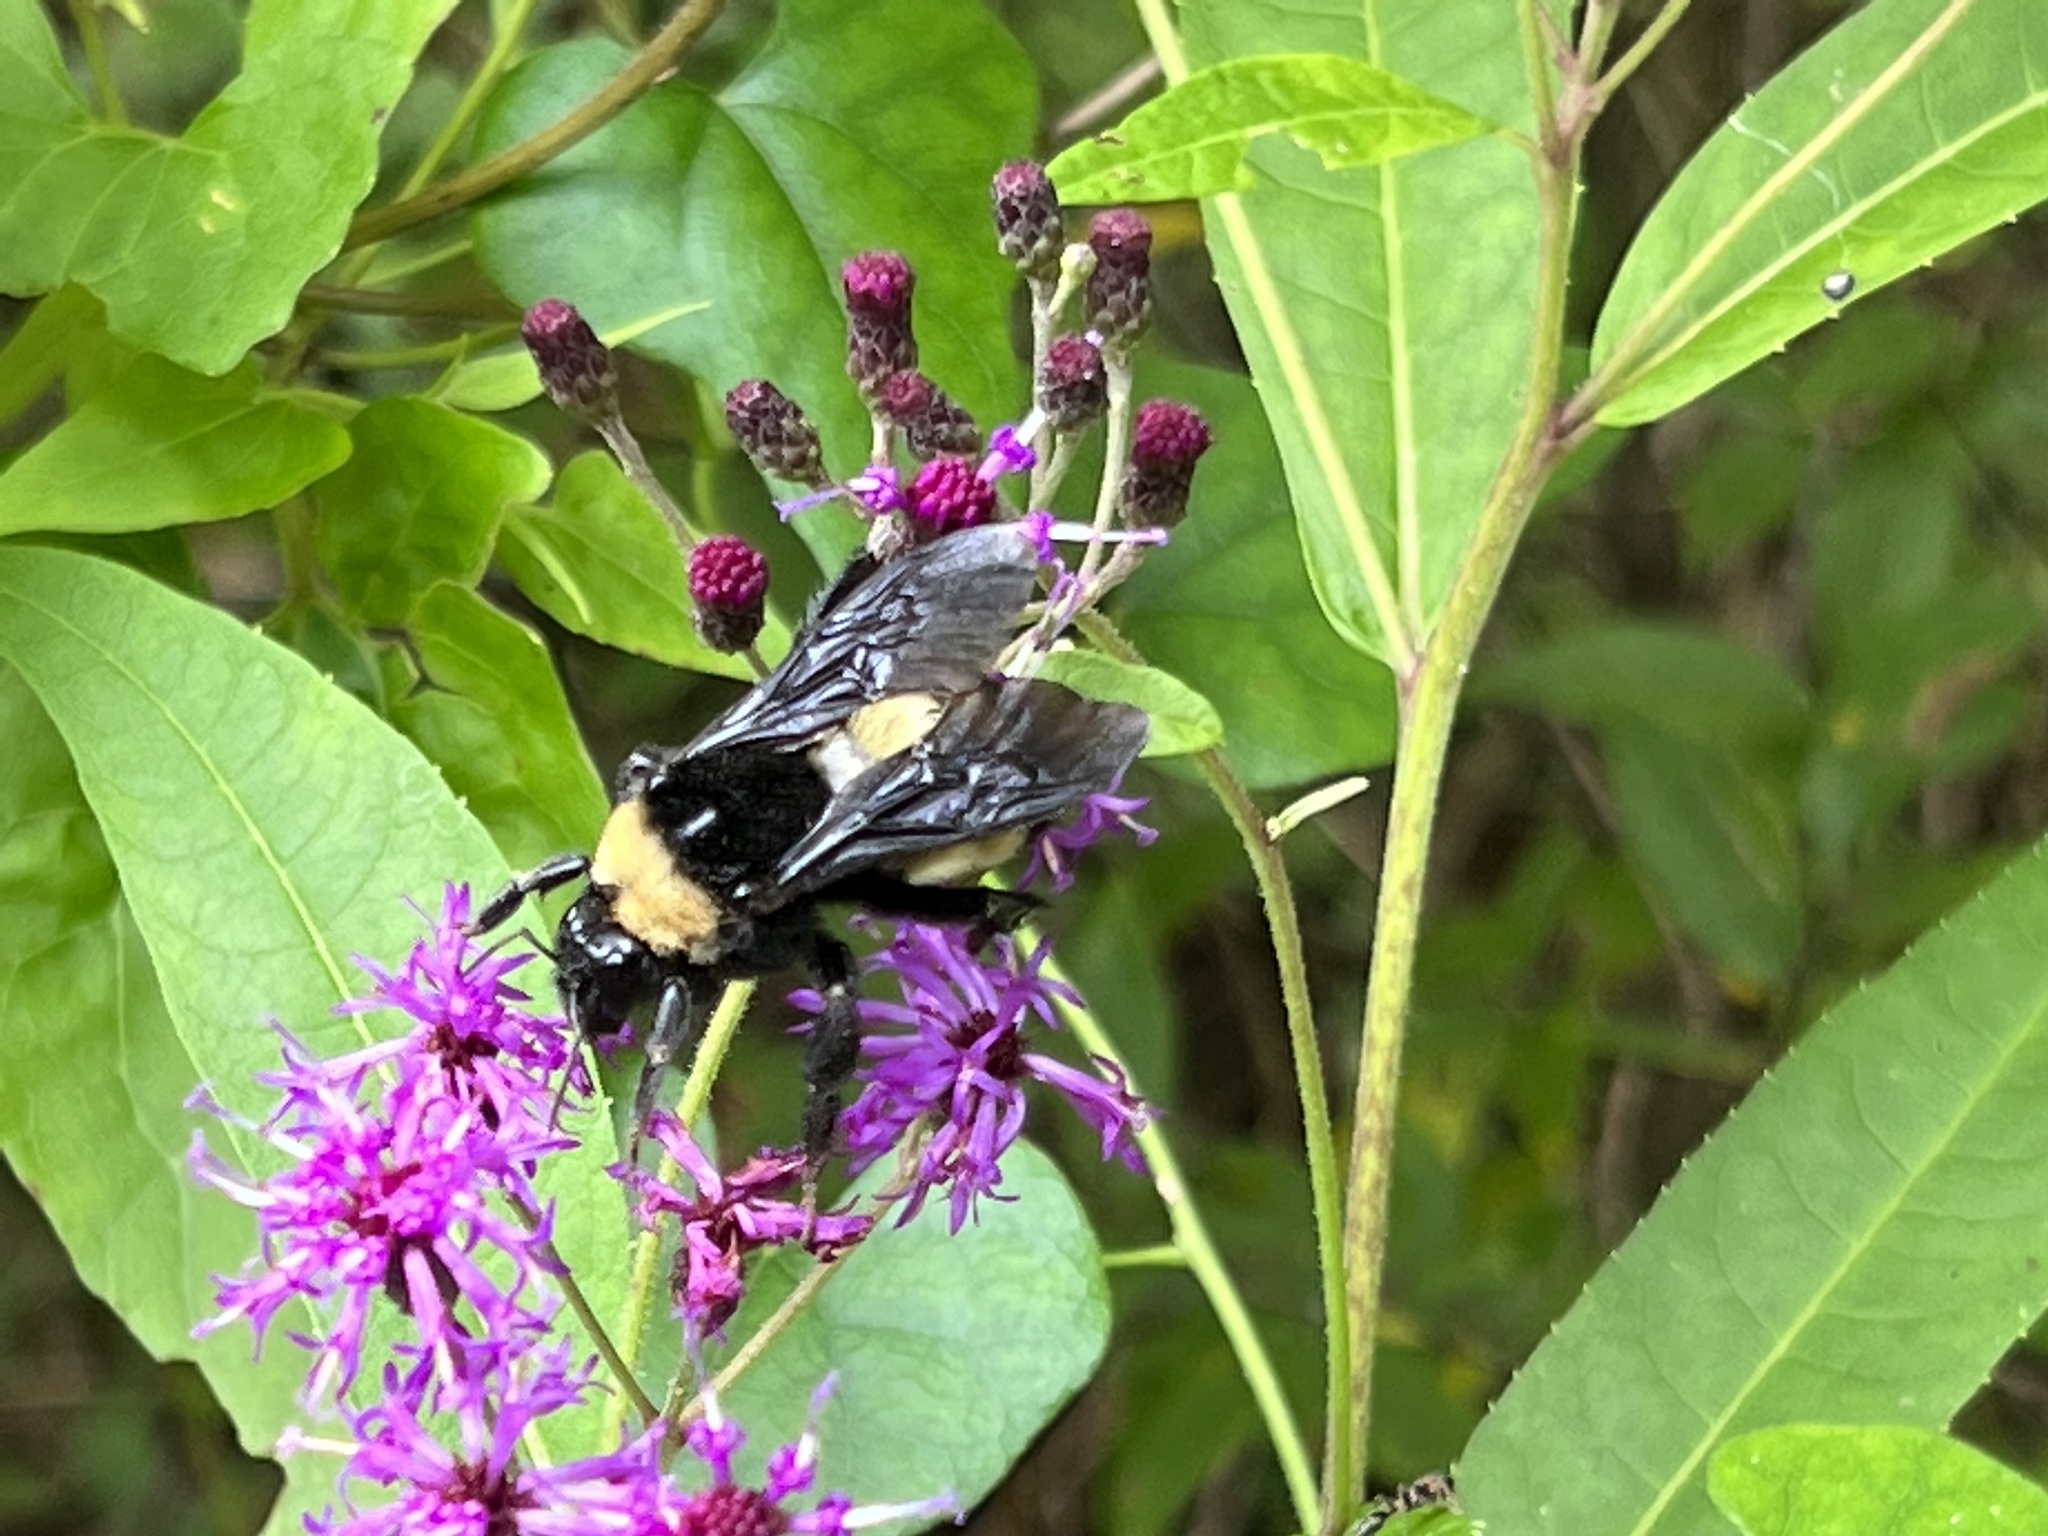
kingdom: Animalia
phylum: Arthropoda
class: Insecta
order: Hymenoptera
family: Apidae
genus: Bombus
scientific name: Bombus pensylvanicus
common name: Bumble bee
